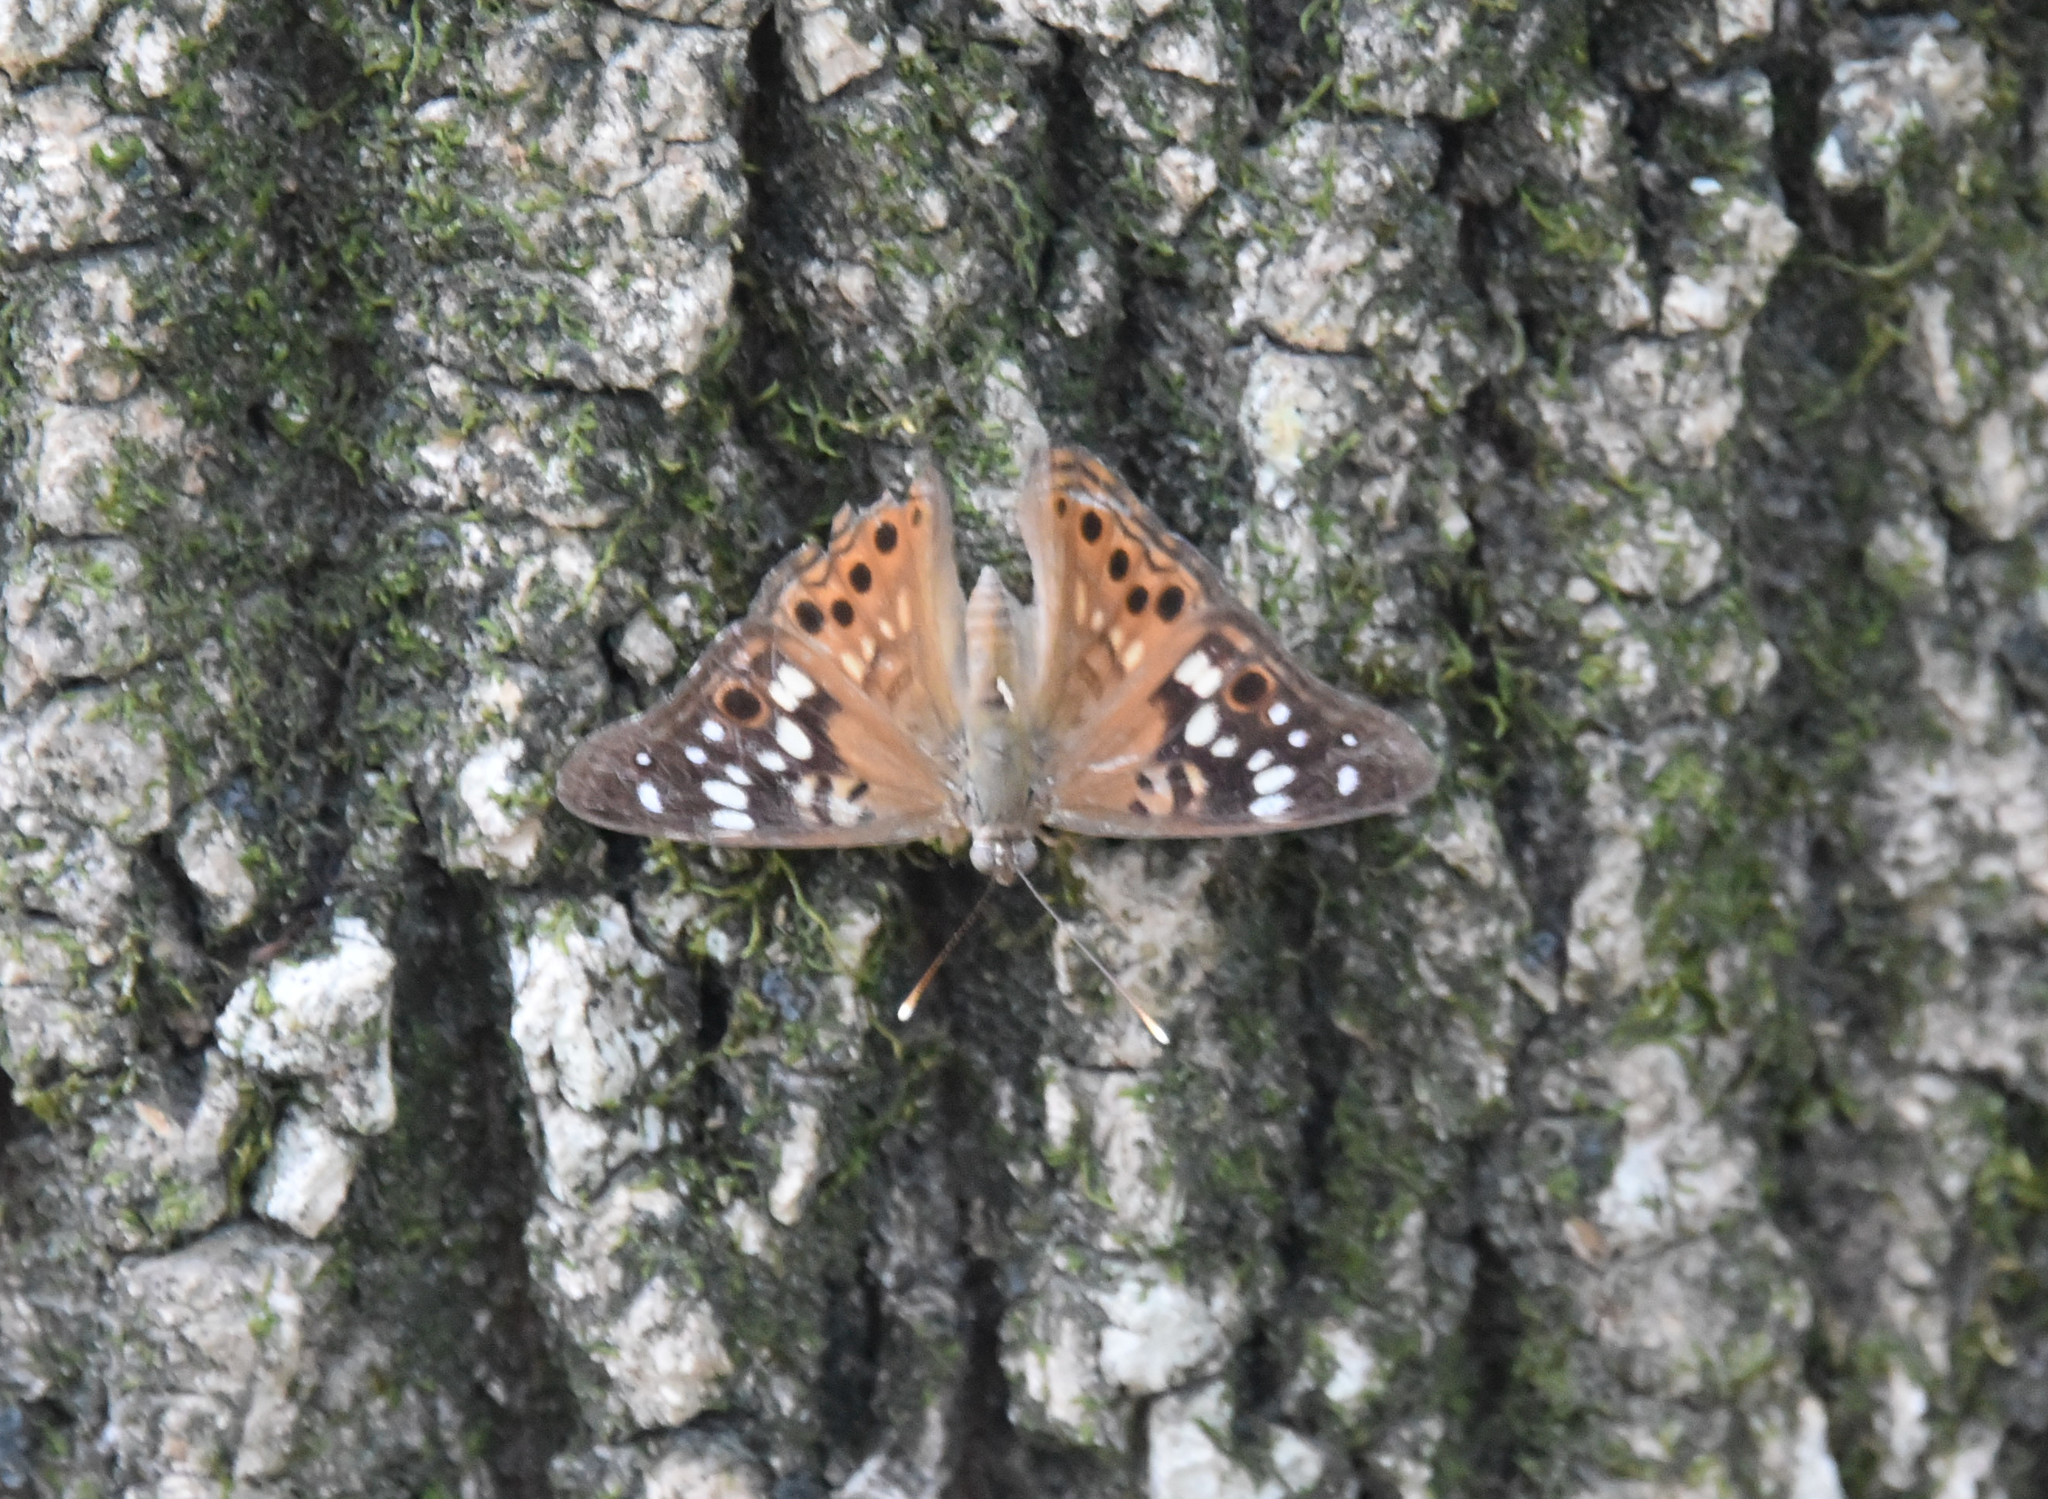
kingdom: Animalia
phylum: Arthropoda
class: Insecta
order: Lepidoptera
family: Nymphalidae
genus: Asterocampa
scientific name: Asterocampa celtis
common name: Hackberry emperor
